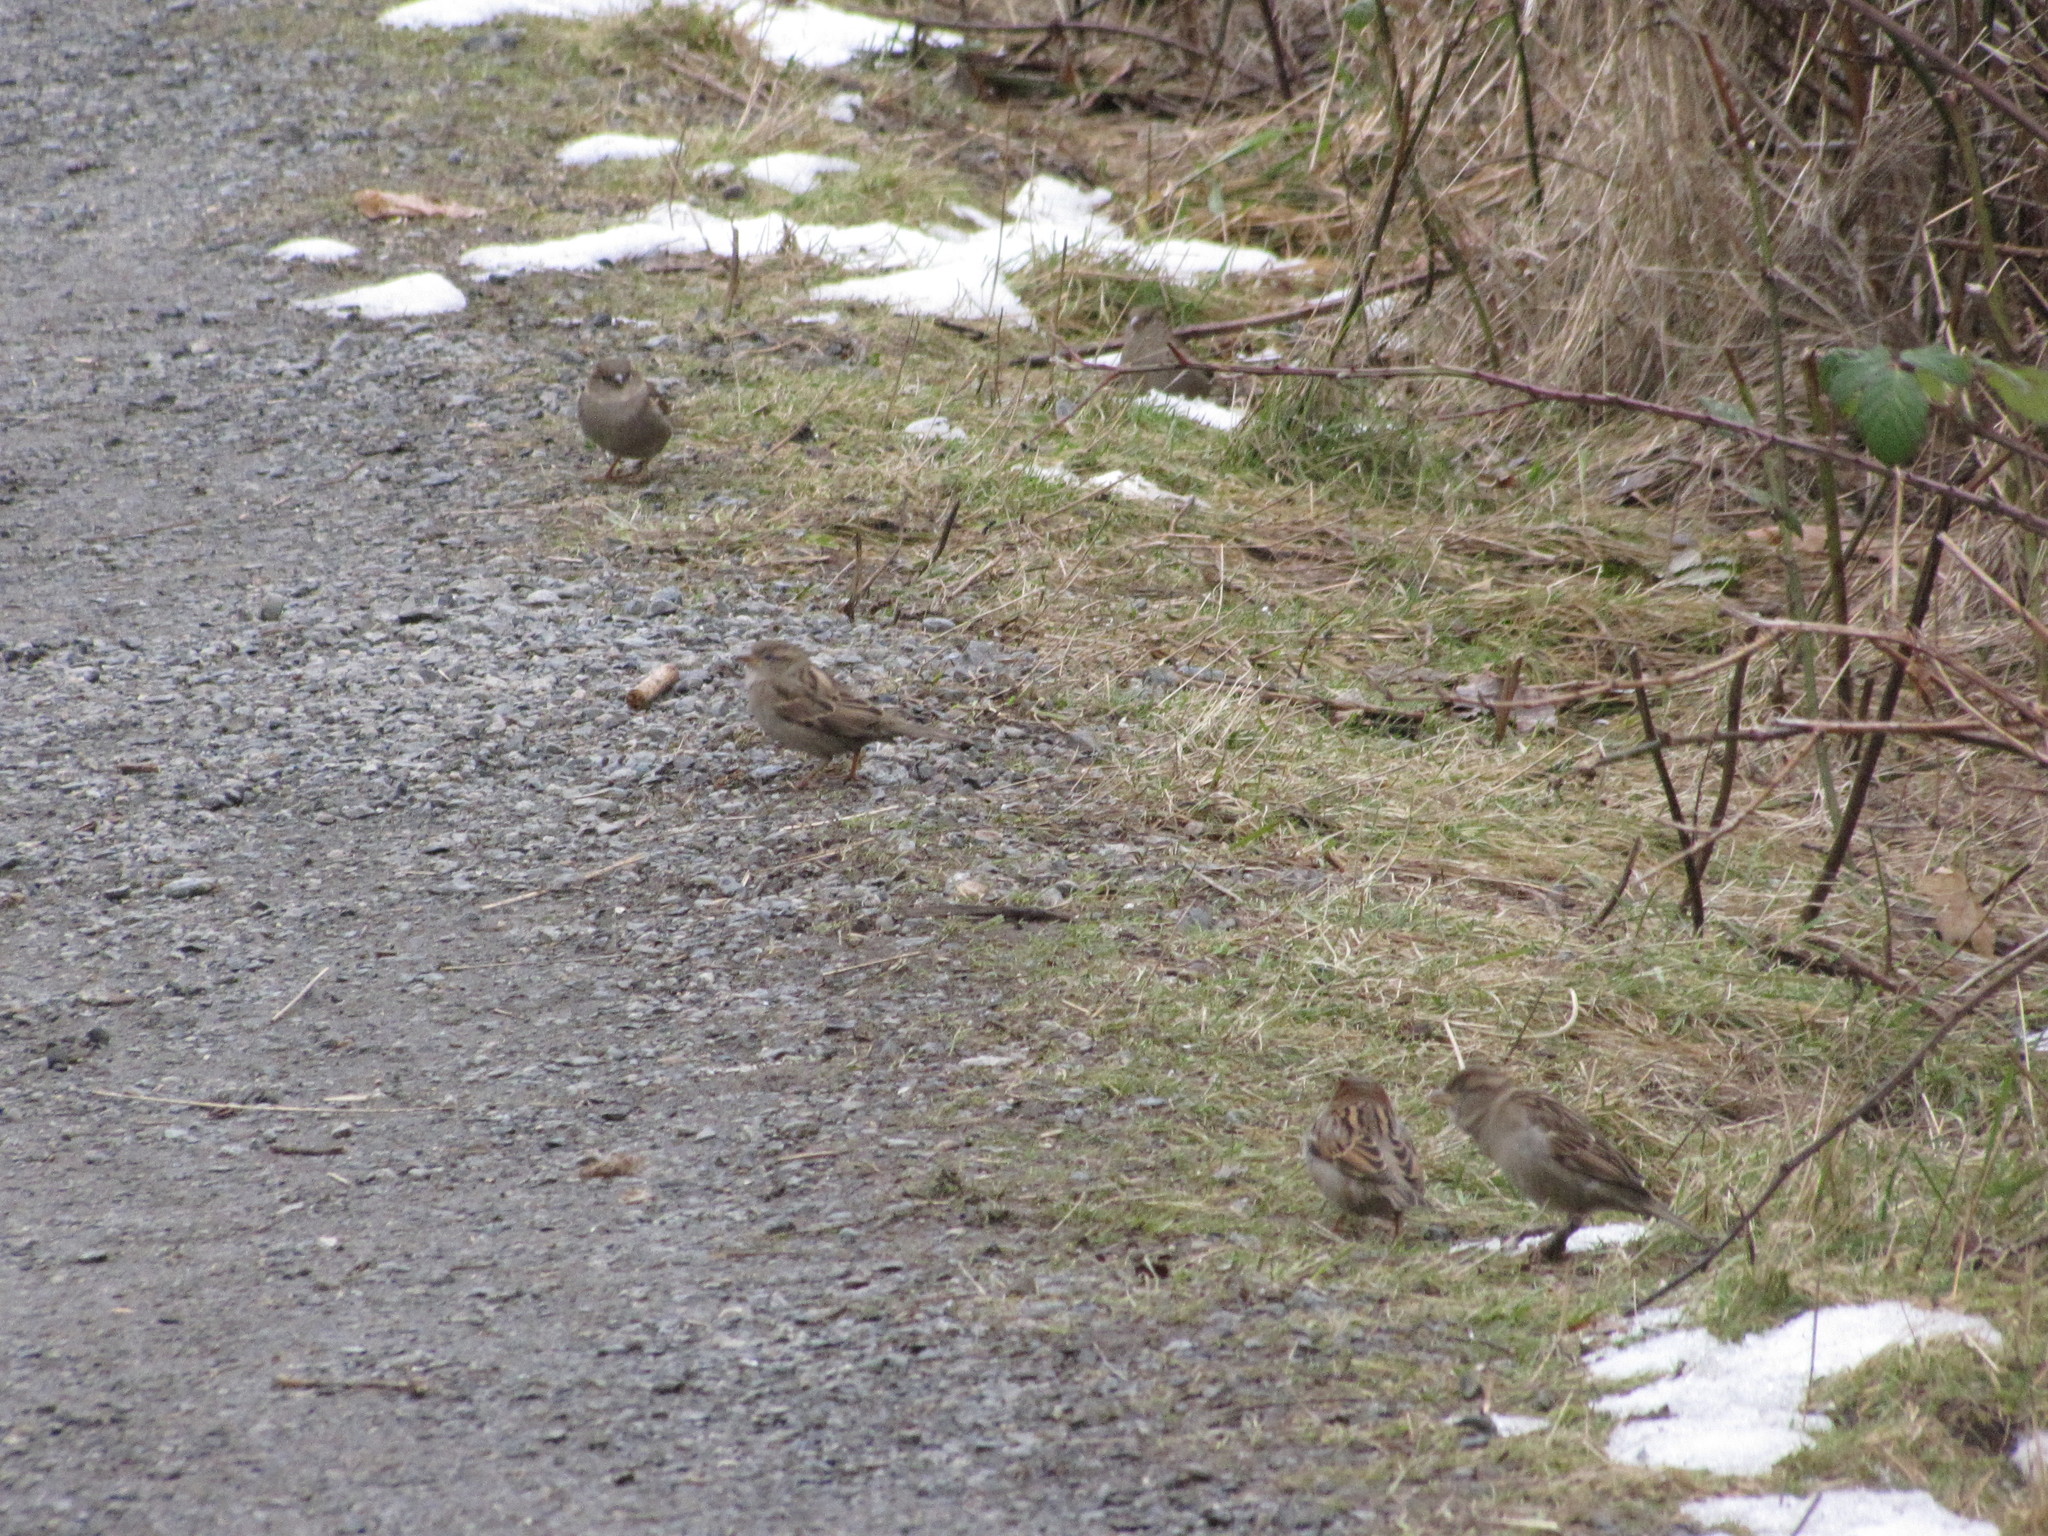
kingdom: Animalia
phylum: Chordata
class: Aves
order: Passeriformes
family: Passeridae
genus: Passer
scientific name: Passer domesticus
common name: House sparrow
